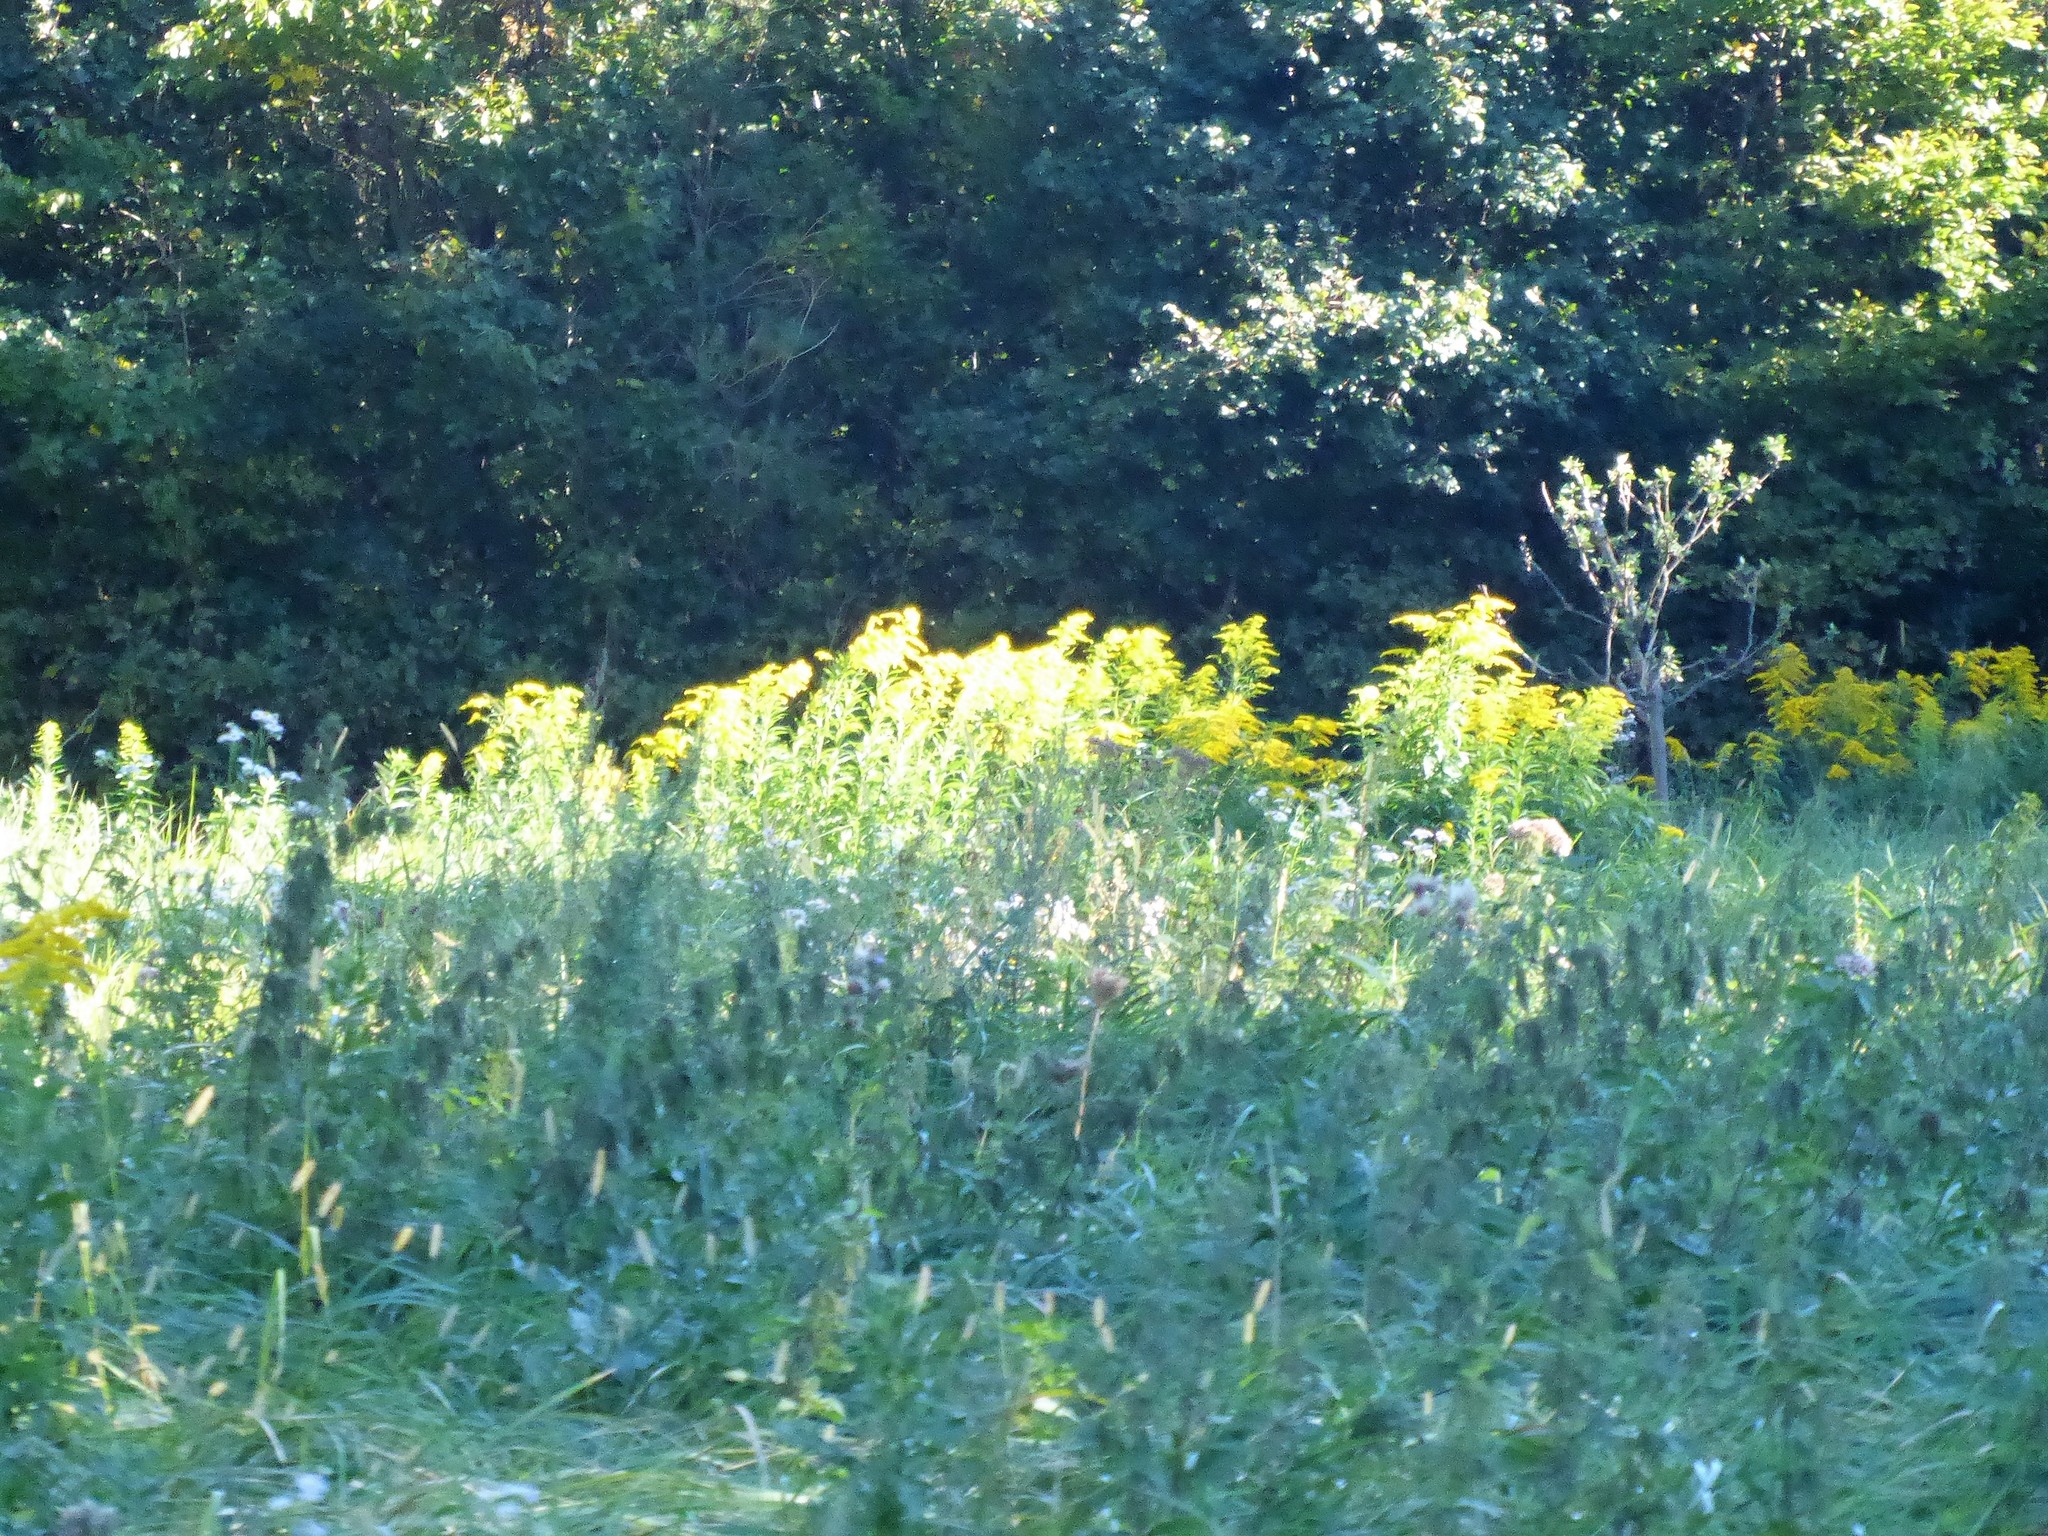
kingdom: Plantae
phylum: Tracheophyta
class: Magnoliopsida
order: Asterales
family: Asteraceae
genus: Solidago
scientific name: Solidago canadensis
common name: Canada goldenrod
